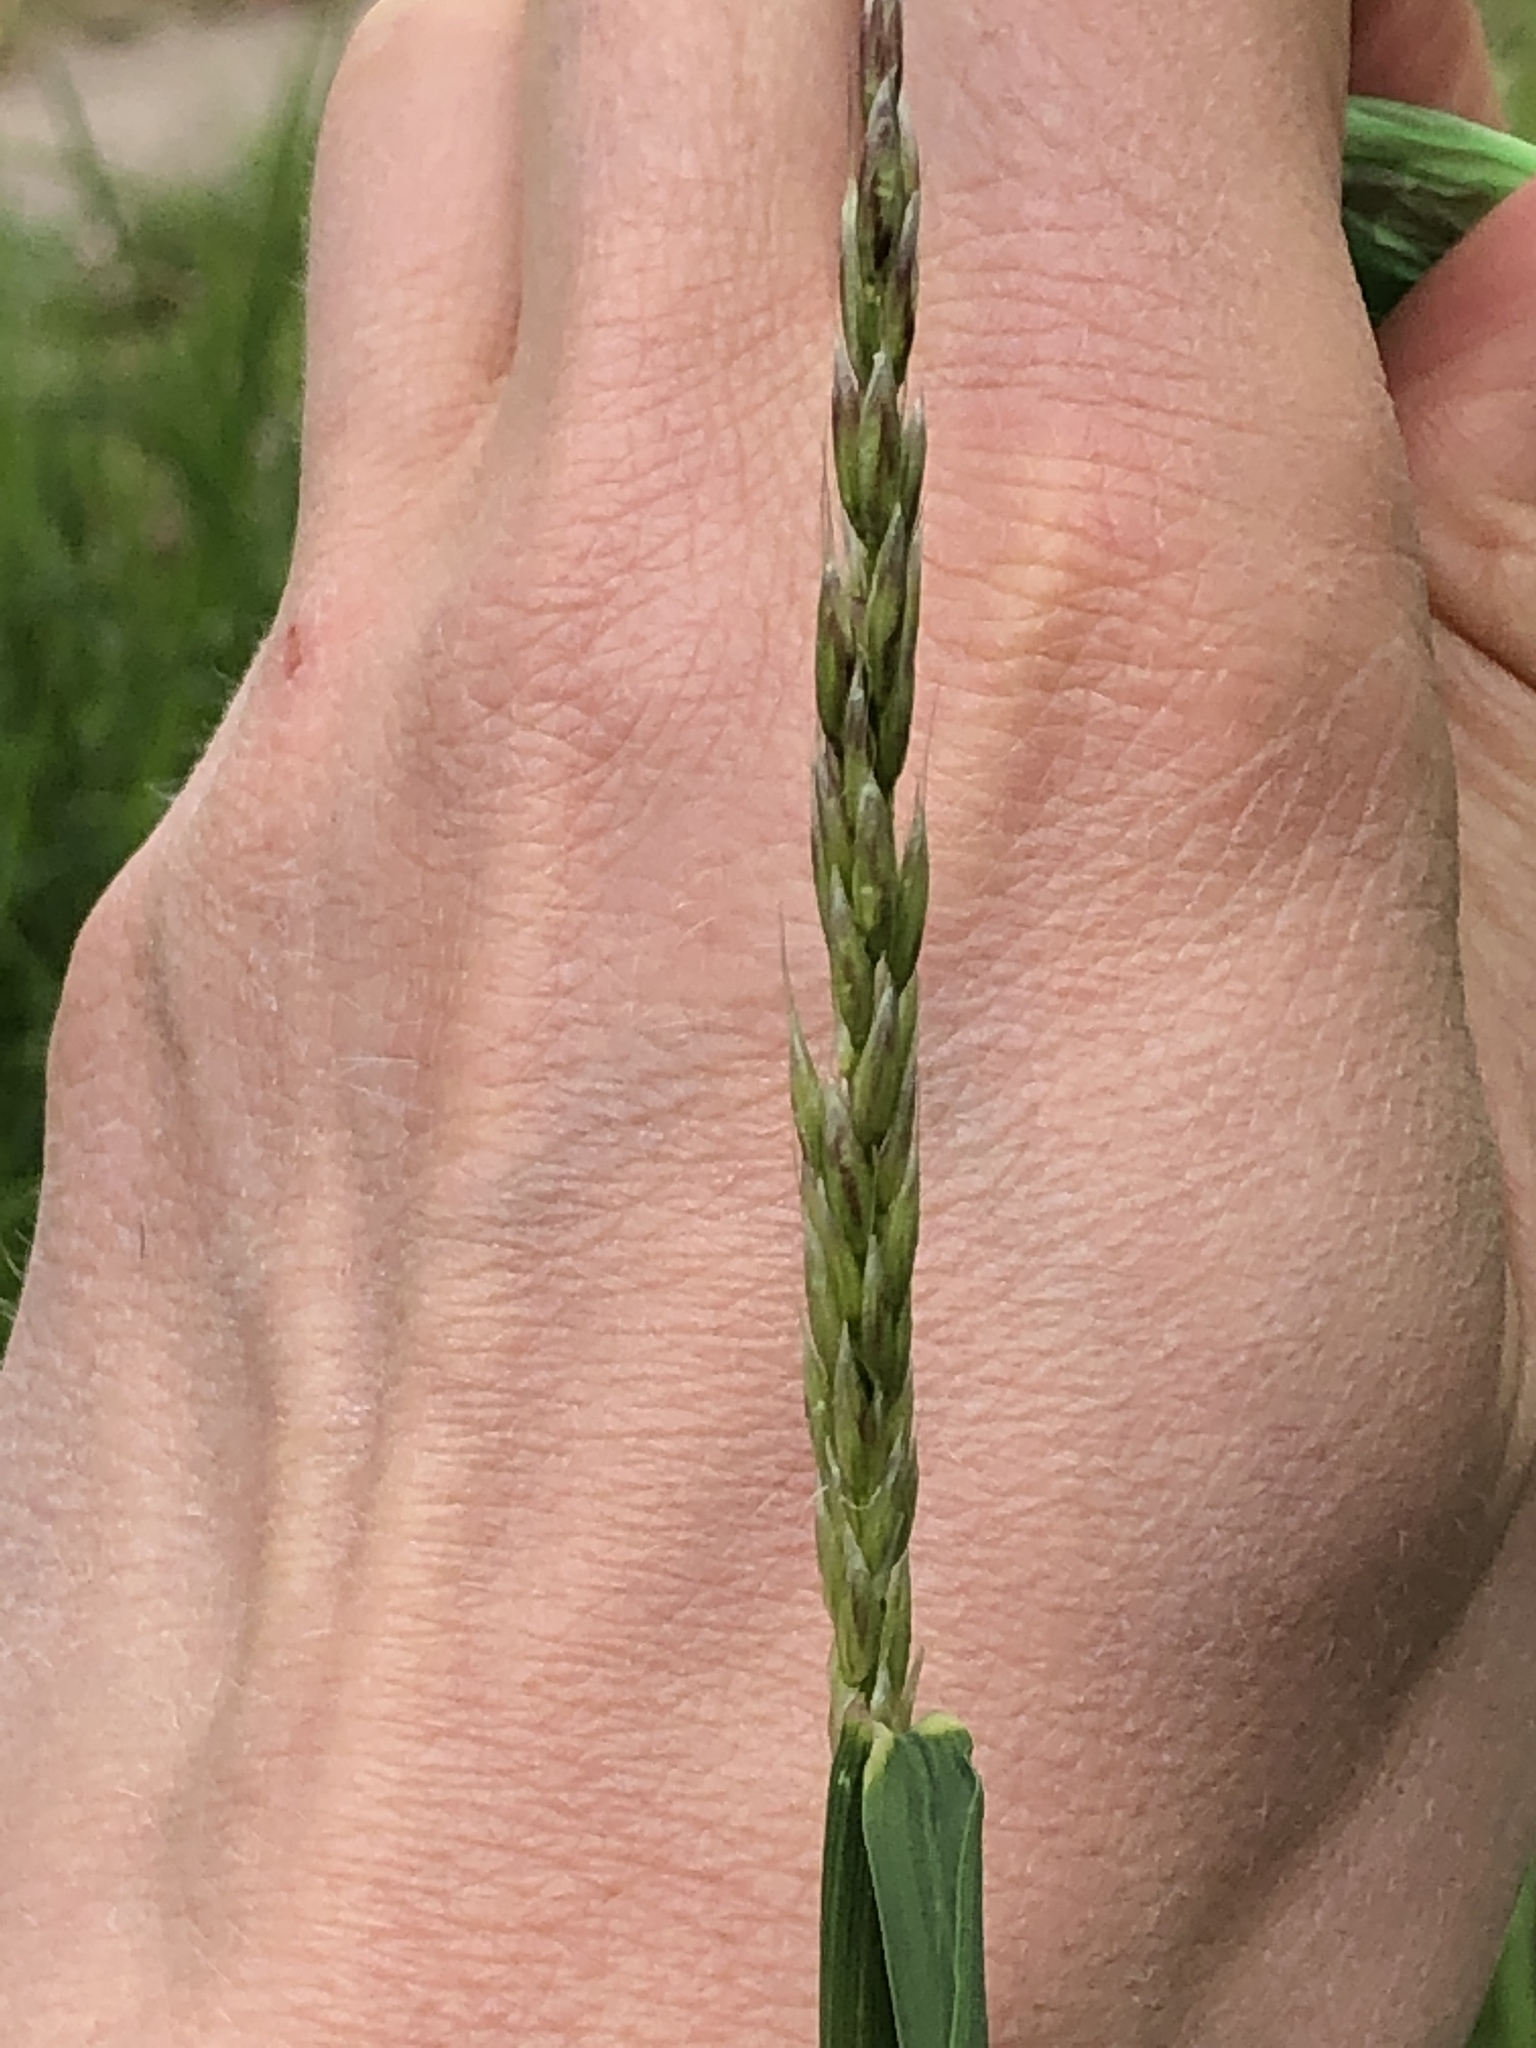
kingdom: Plantae
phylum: Tracheophyta
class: Liliopsida
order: Poales
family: Poaceae
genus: Arrhenatherum
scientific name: Arrhenatherum elatius
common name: Tall oatgrass
